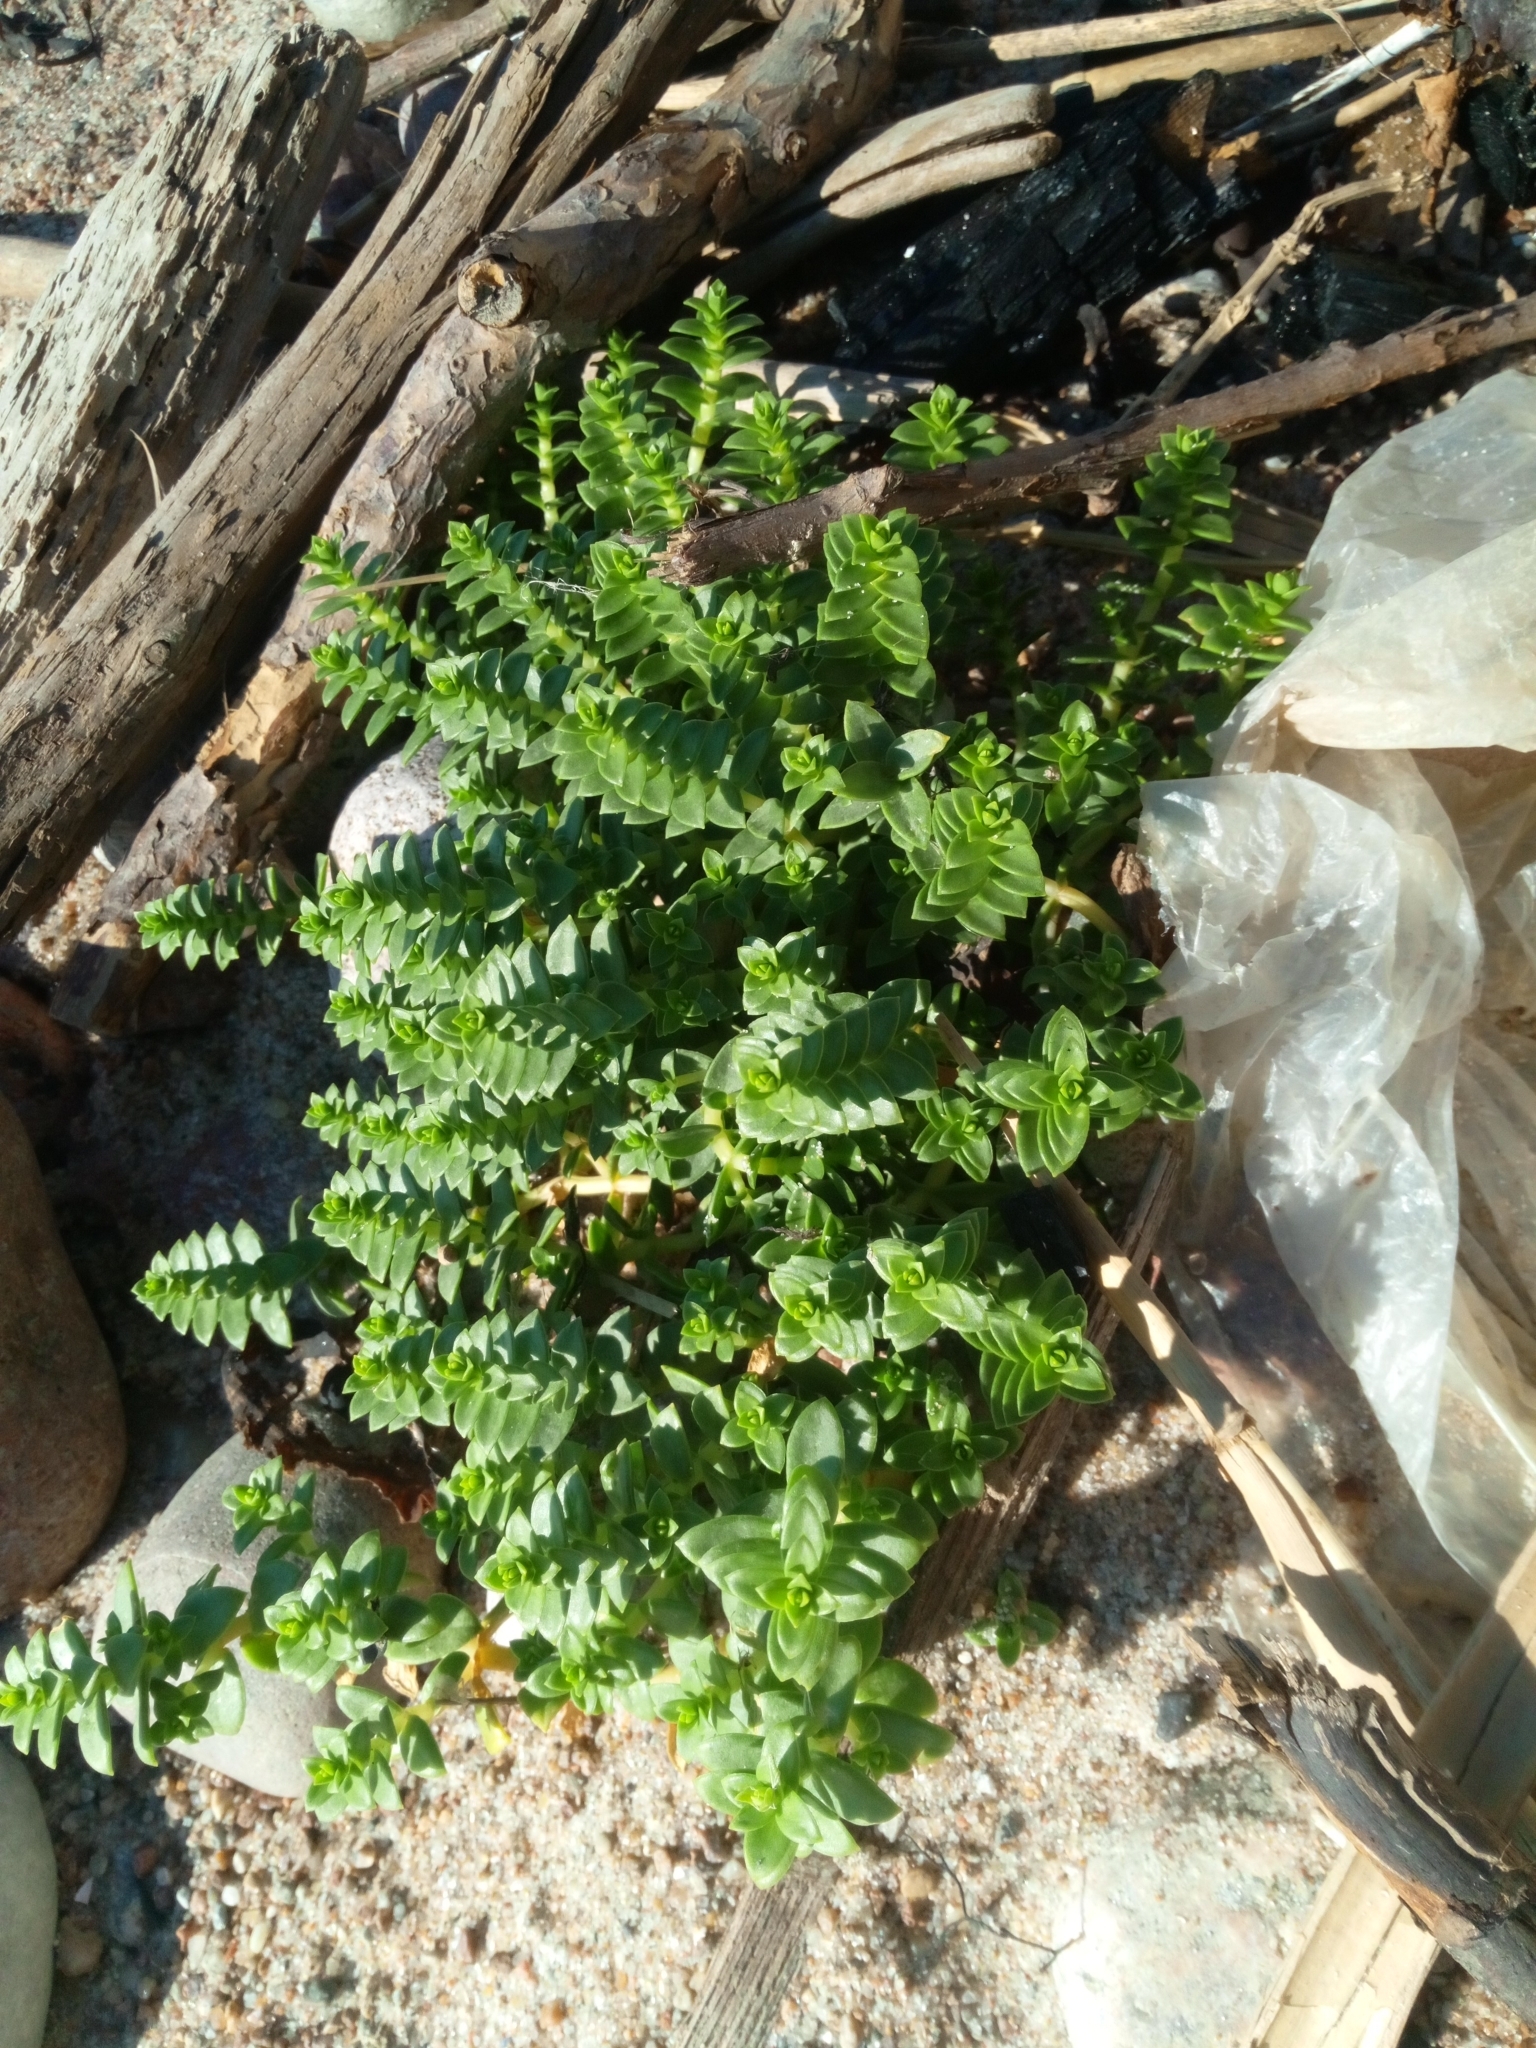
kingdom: Plantae
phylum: Tracheophyta
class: Magnoliopsida
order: Caryophyllales
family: Caryophyllaceae
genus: Honckenya
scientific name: Honckenya peploides
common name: Sea sandwort
